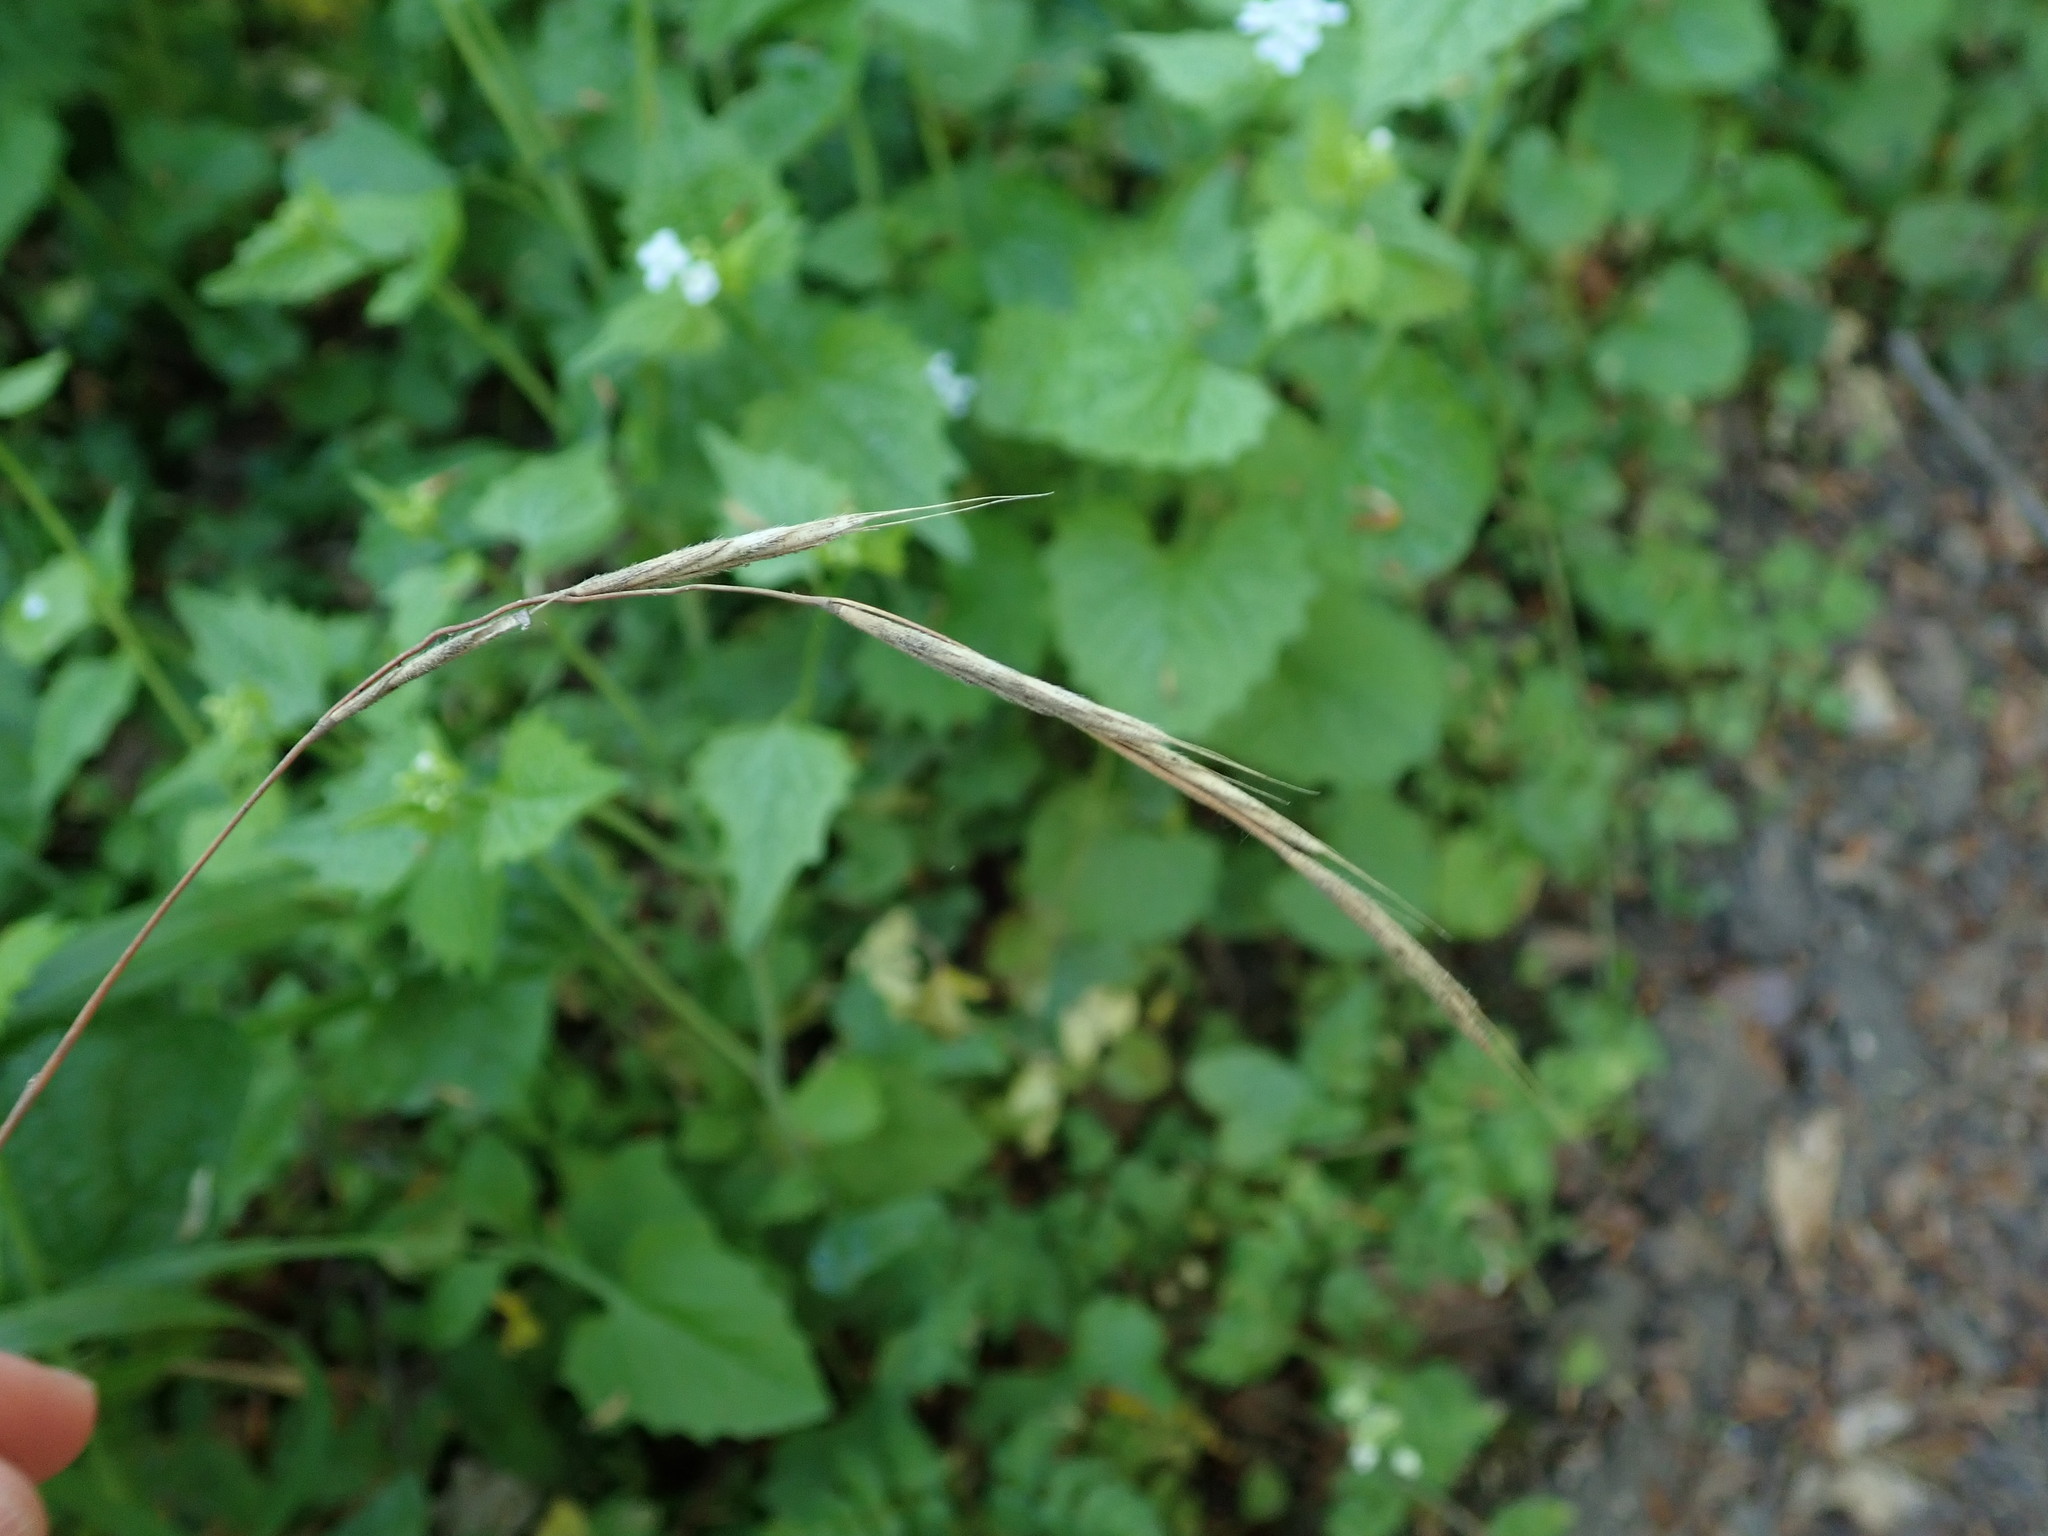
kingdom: Plantae
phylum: Tracheophyta
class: Liliopsida
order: Poales
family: Poaceae
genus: Brachypodium
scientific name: Brachypodium sylvaticum
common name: False-brome
